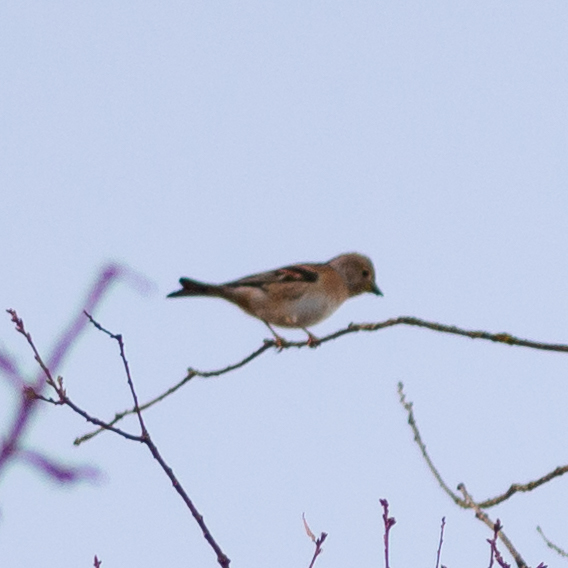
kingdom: Animalia
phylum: Chordata
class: Aves
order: Passeriformes
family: Fringillidae
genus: Fringilla
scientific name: Fringilla montifringilla
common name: Brambling
